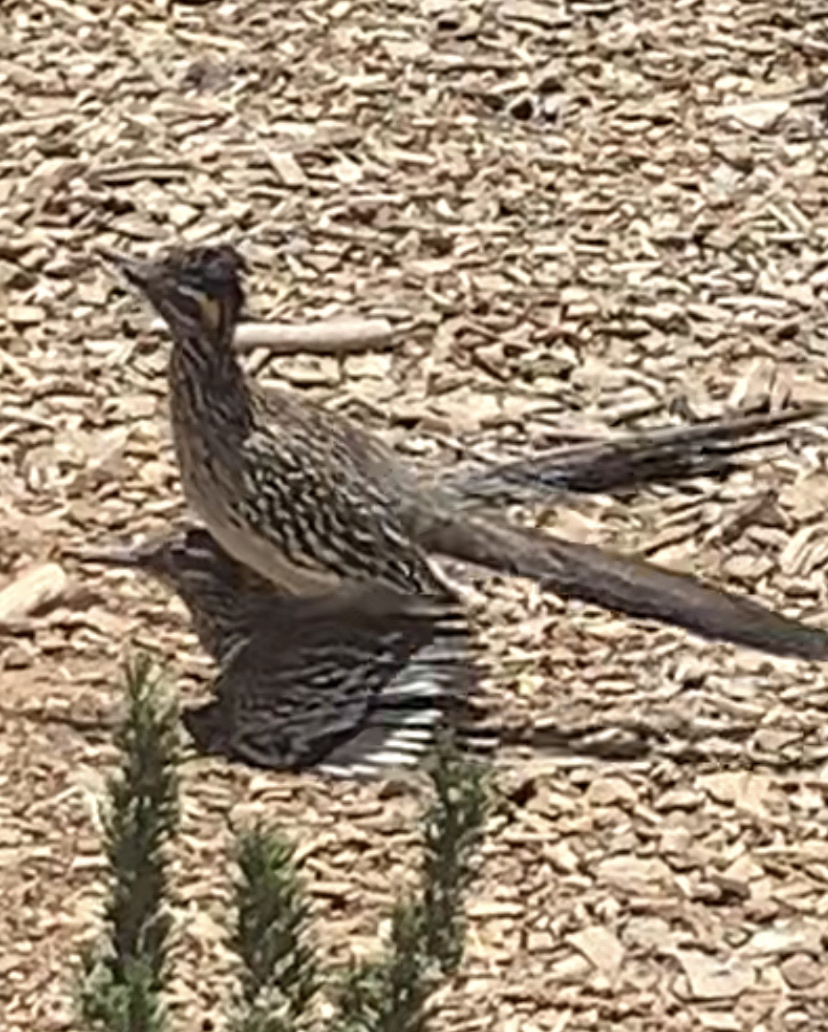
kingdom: Animalia
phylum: Chordata
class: Aves
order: Cuculiformes
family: Cuculidae
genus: Geococcyx
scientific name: Geococcyx californianus
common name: Greater roadrunner
